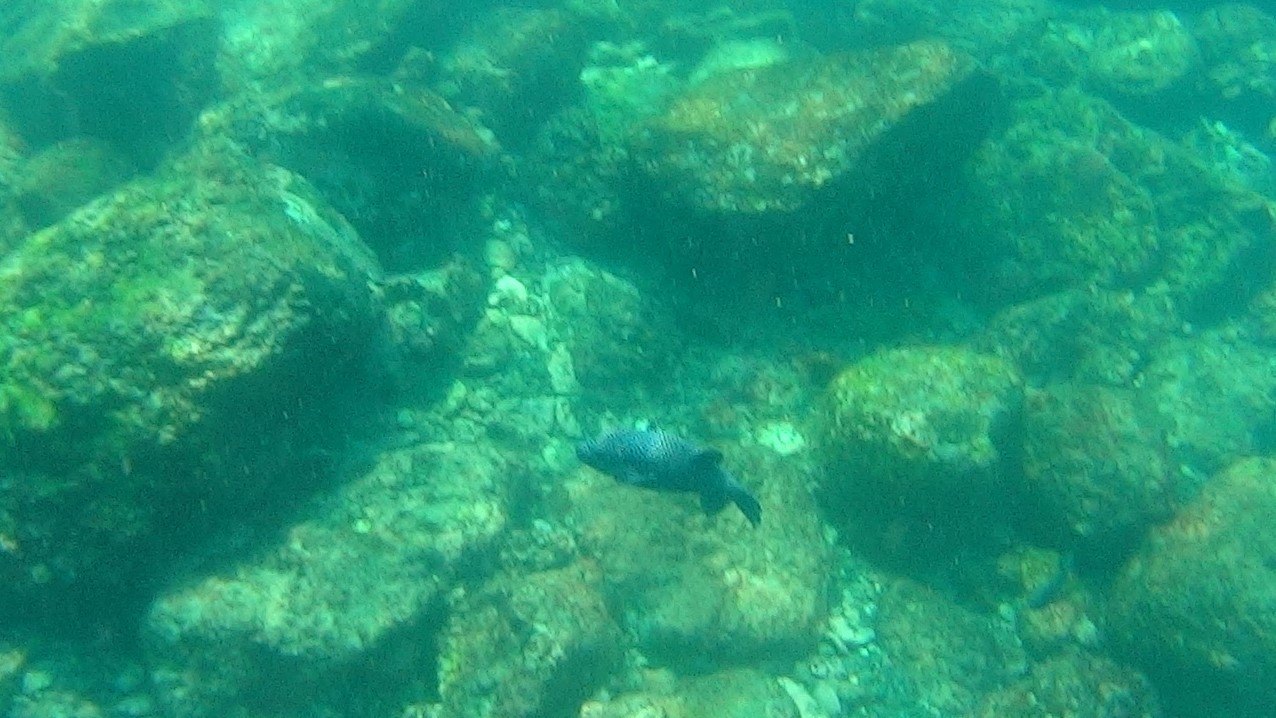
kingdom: Animalia
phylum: Chordata
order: Tetraodontiformes
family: Tetraodontidae
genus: Arothron
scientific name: Arothron meleagris
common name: Guinea-fowl pufferfish
